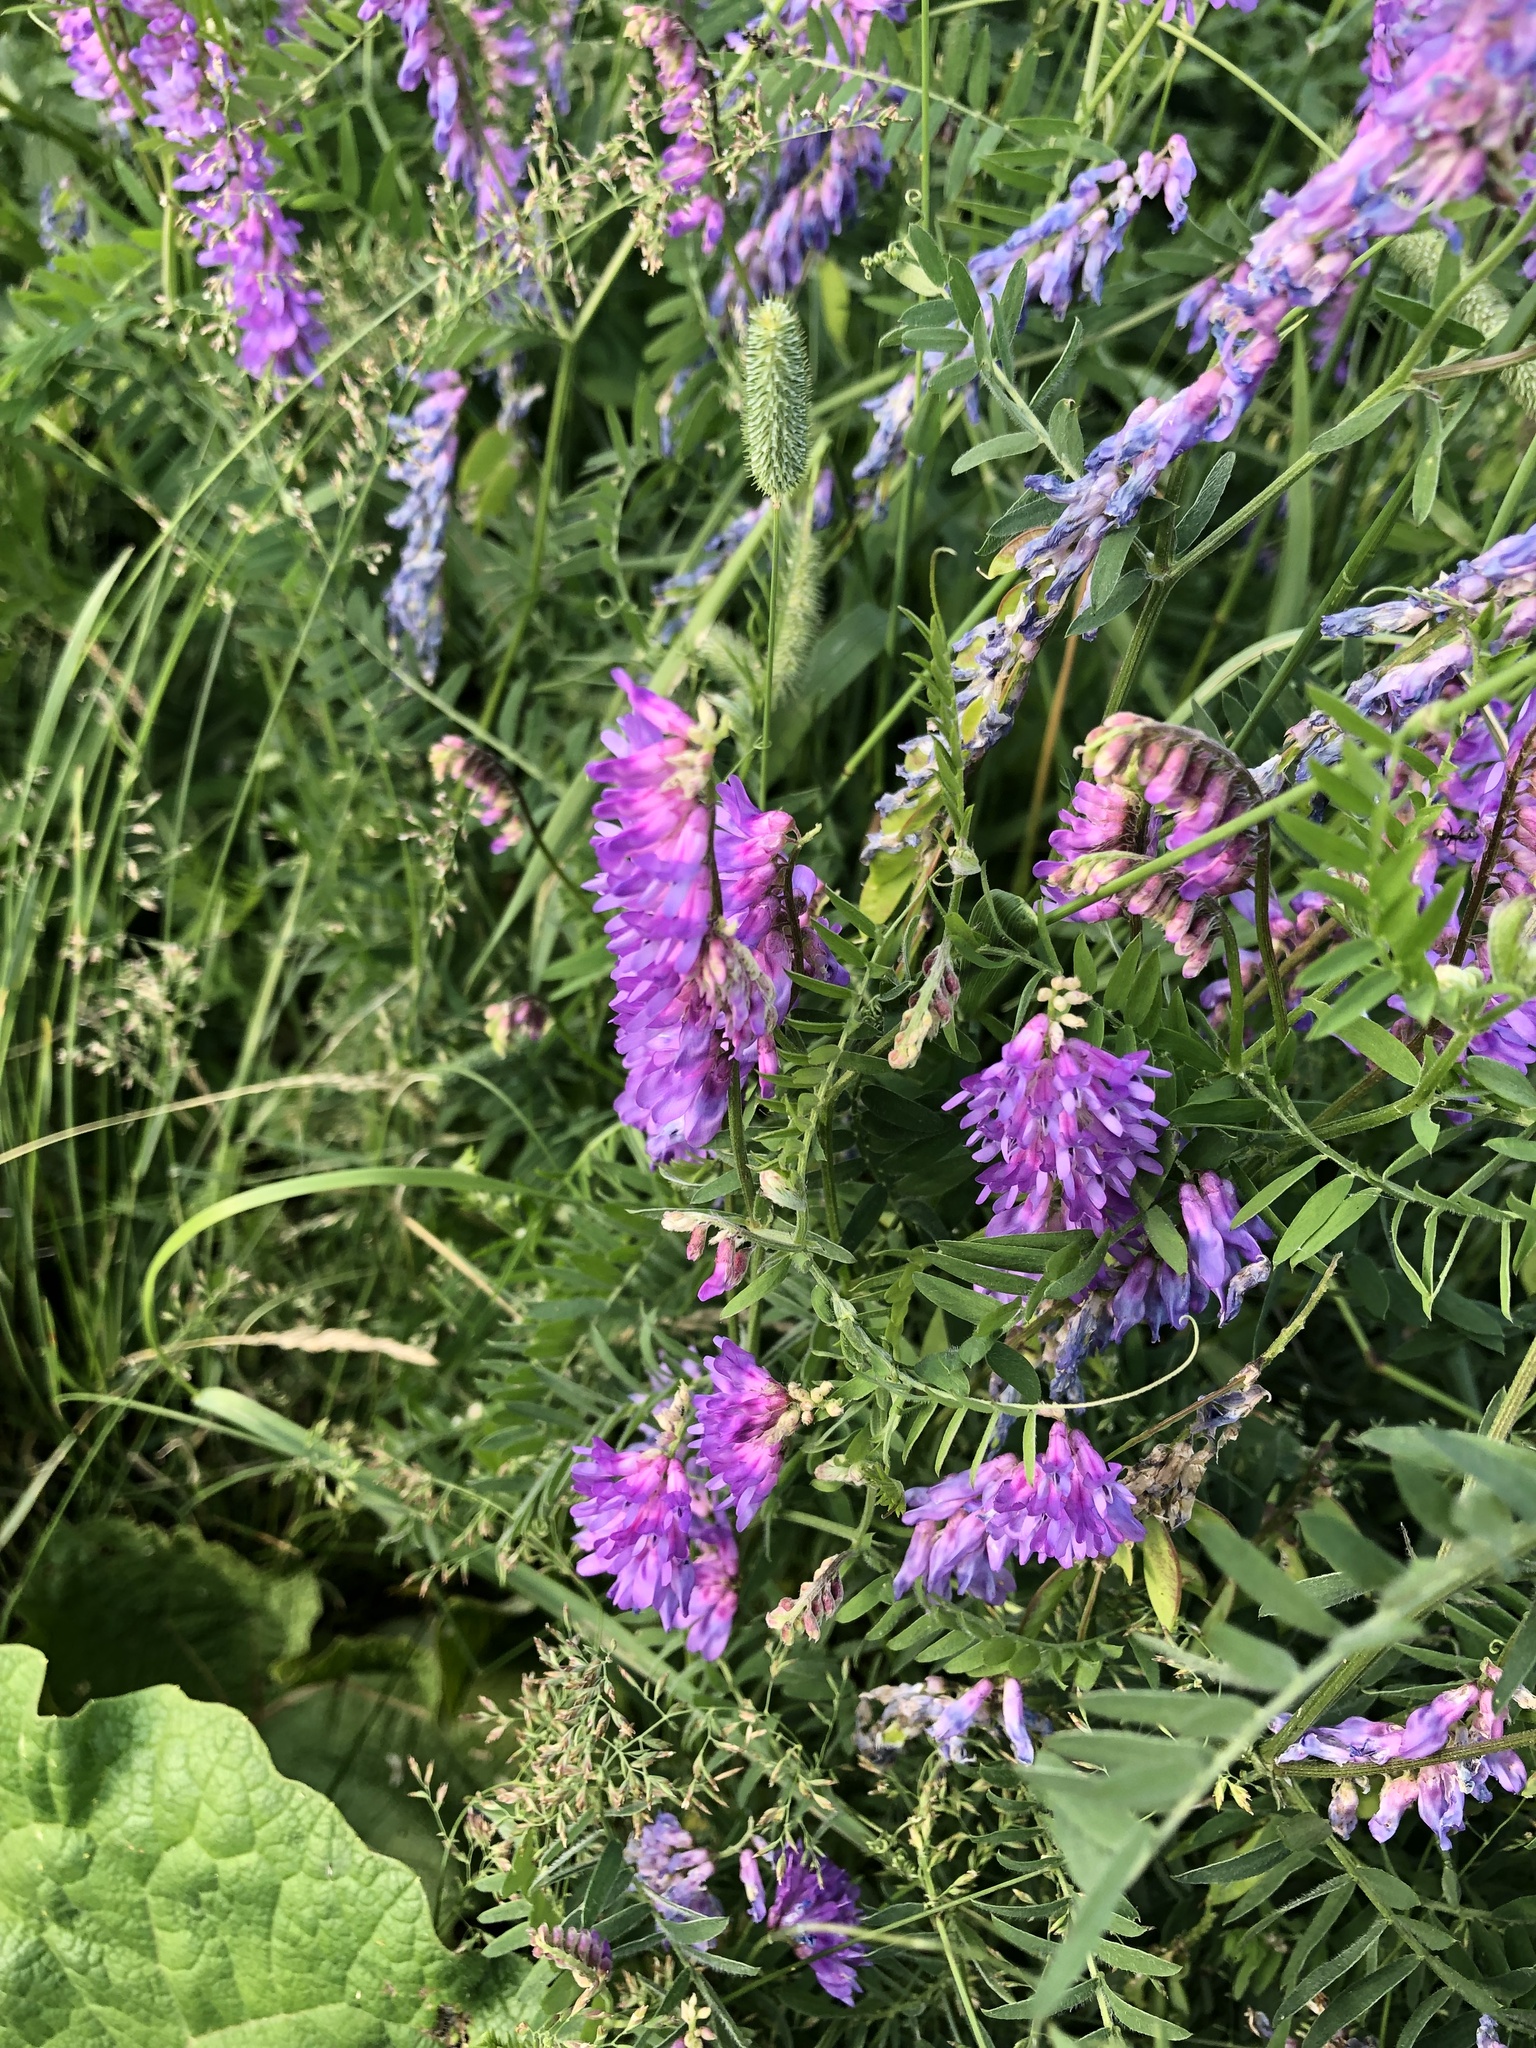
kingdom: Plantae
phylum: Tracheophyta
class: Magnoliopsida
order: Fabales
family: Fabaceae
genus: Vicia
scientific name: Vicia cracca
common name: Bird vetch
